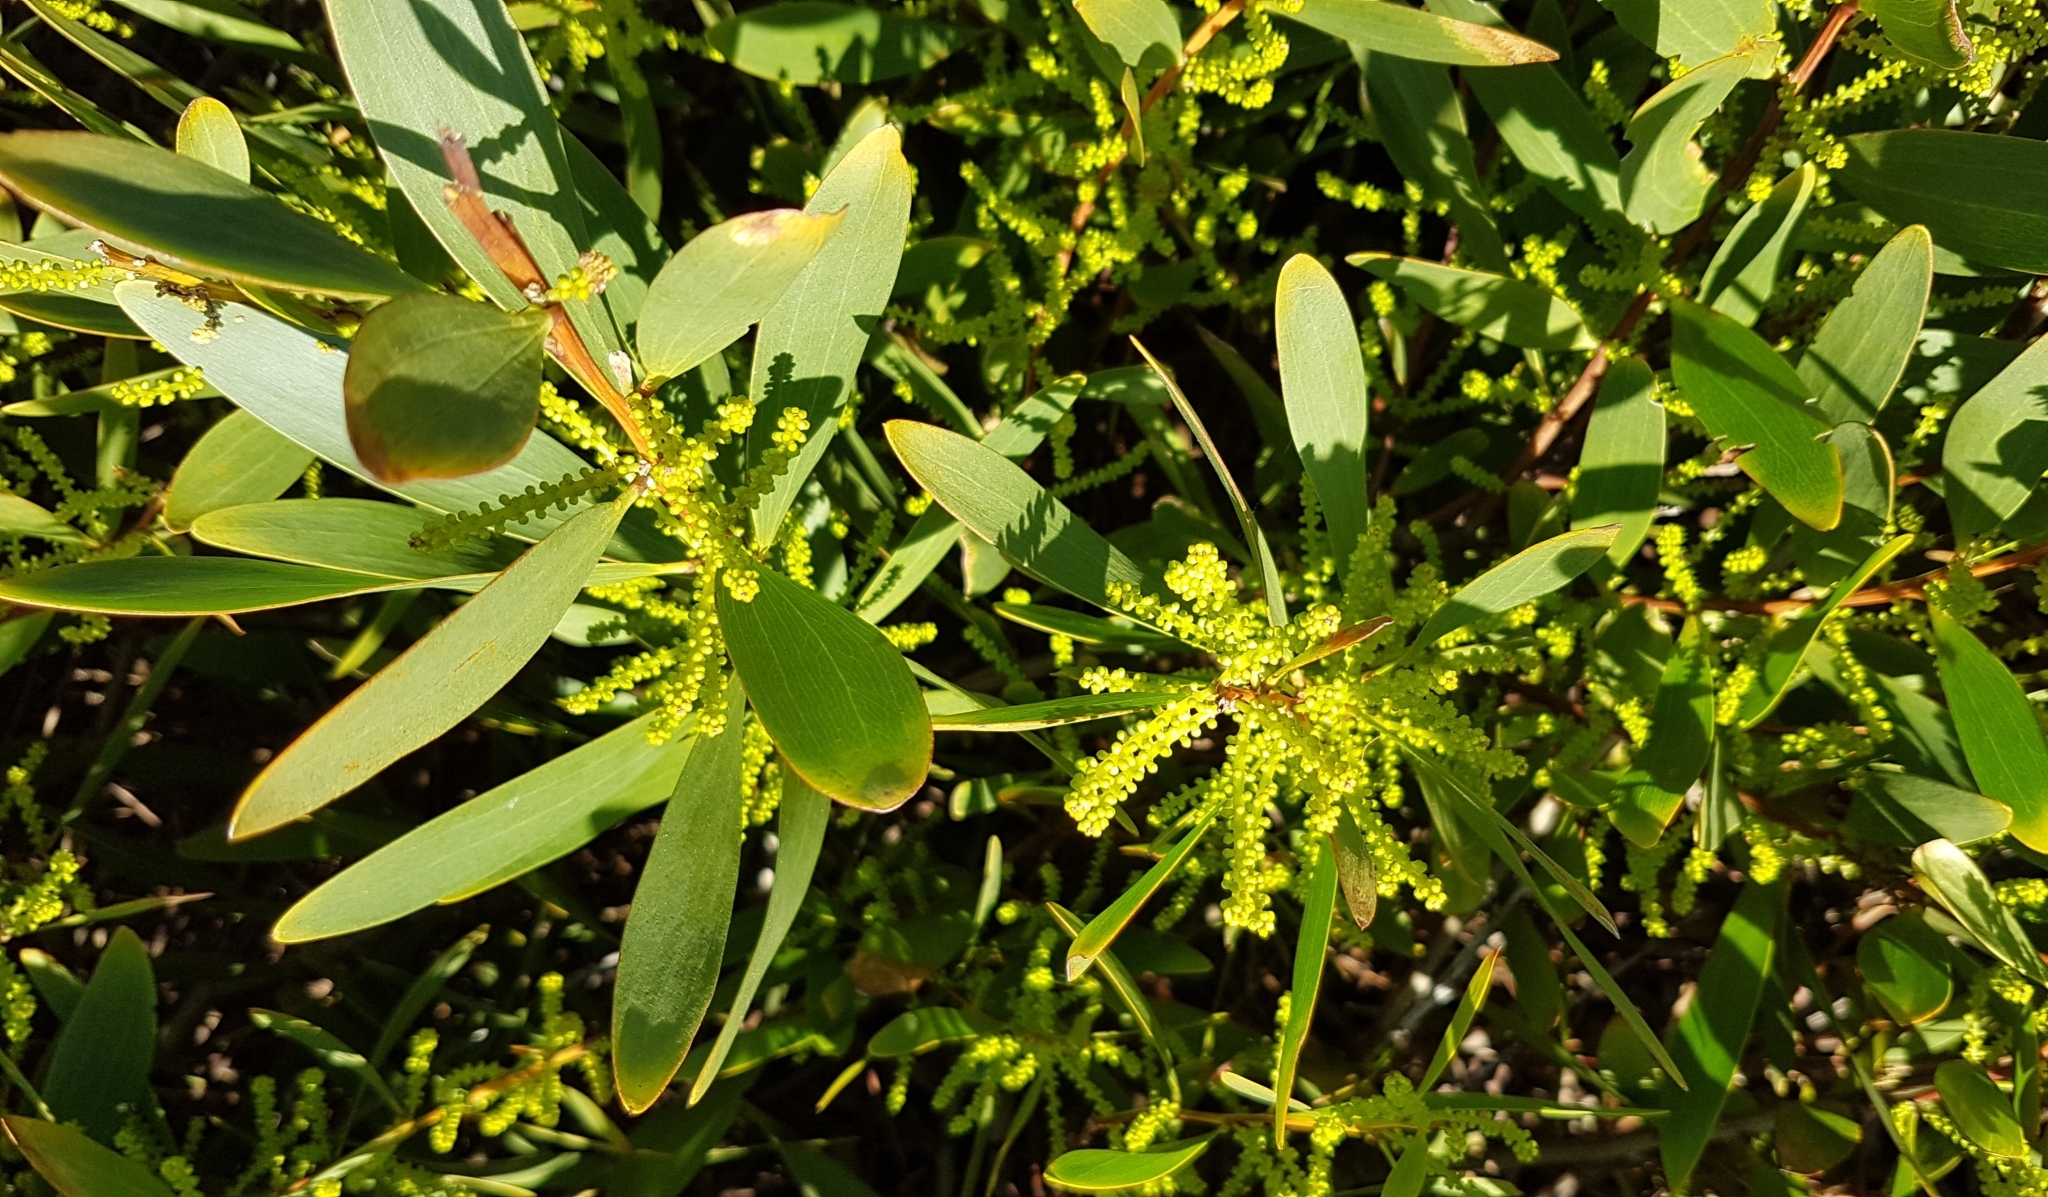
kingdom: Plantae
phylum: Tracheophyta
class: Magnoliopsida
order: Fabales
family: Fabaceae
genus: Acacia
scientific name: Acacia longifolia
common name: Sydney golden wattle
